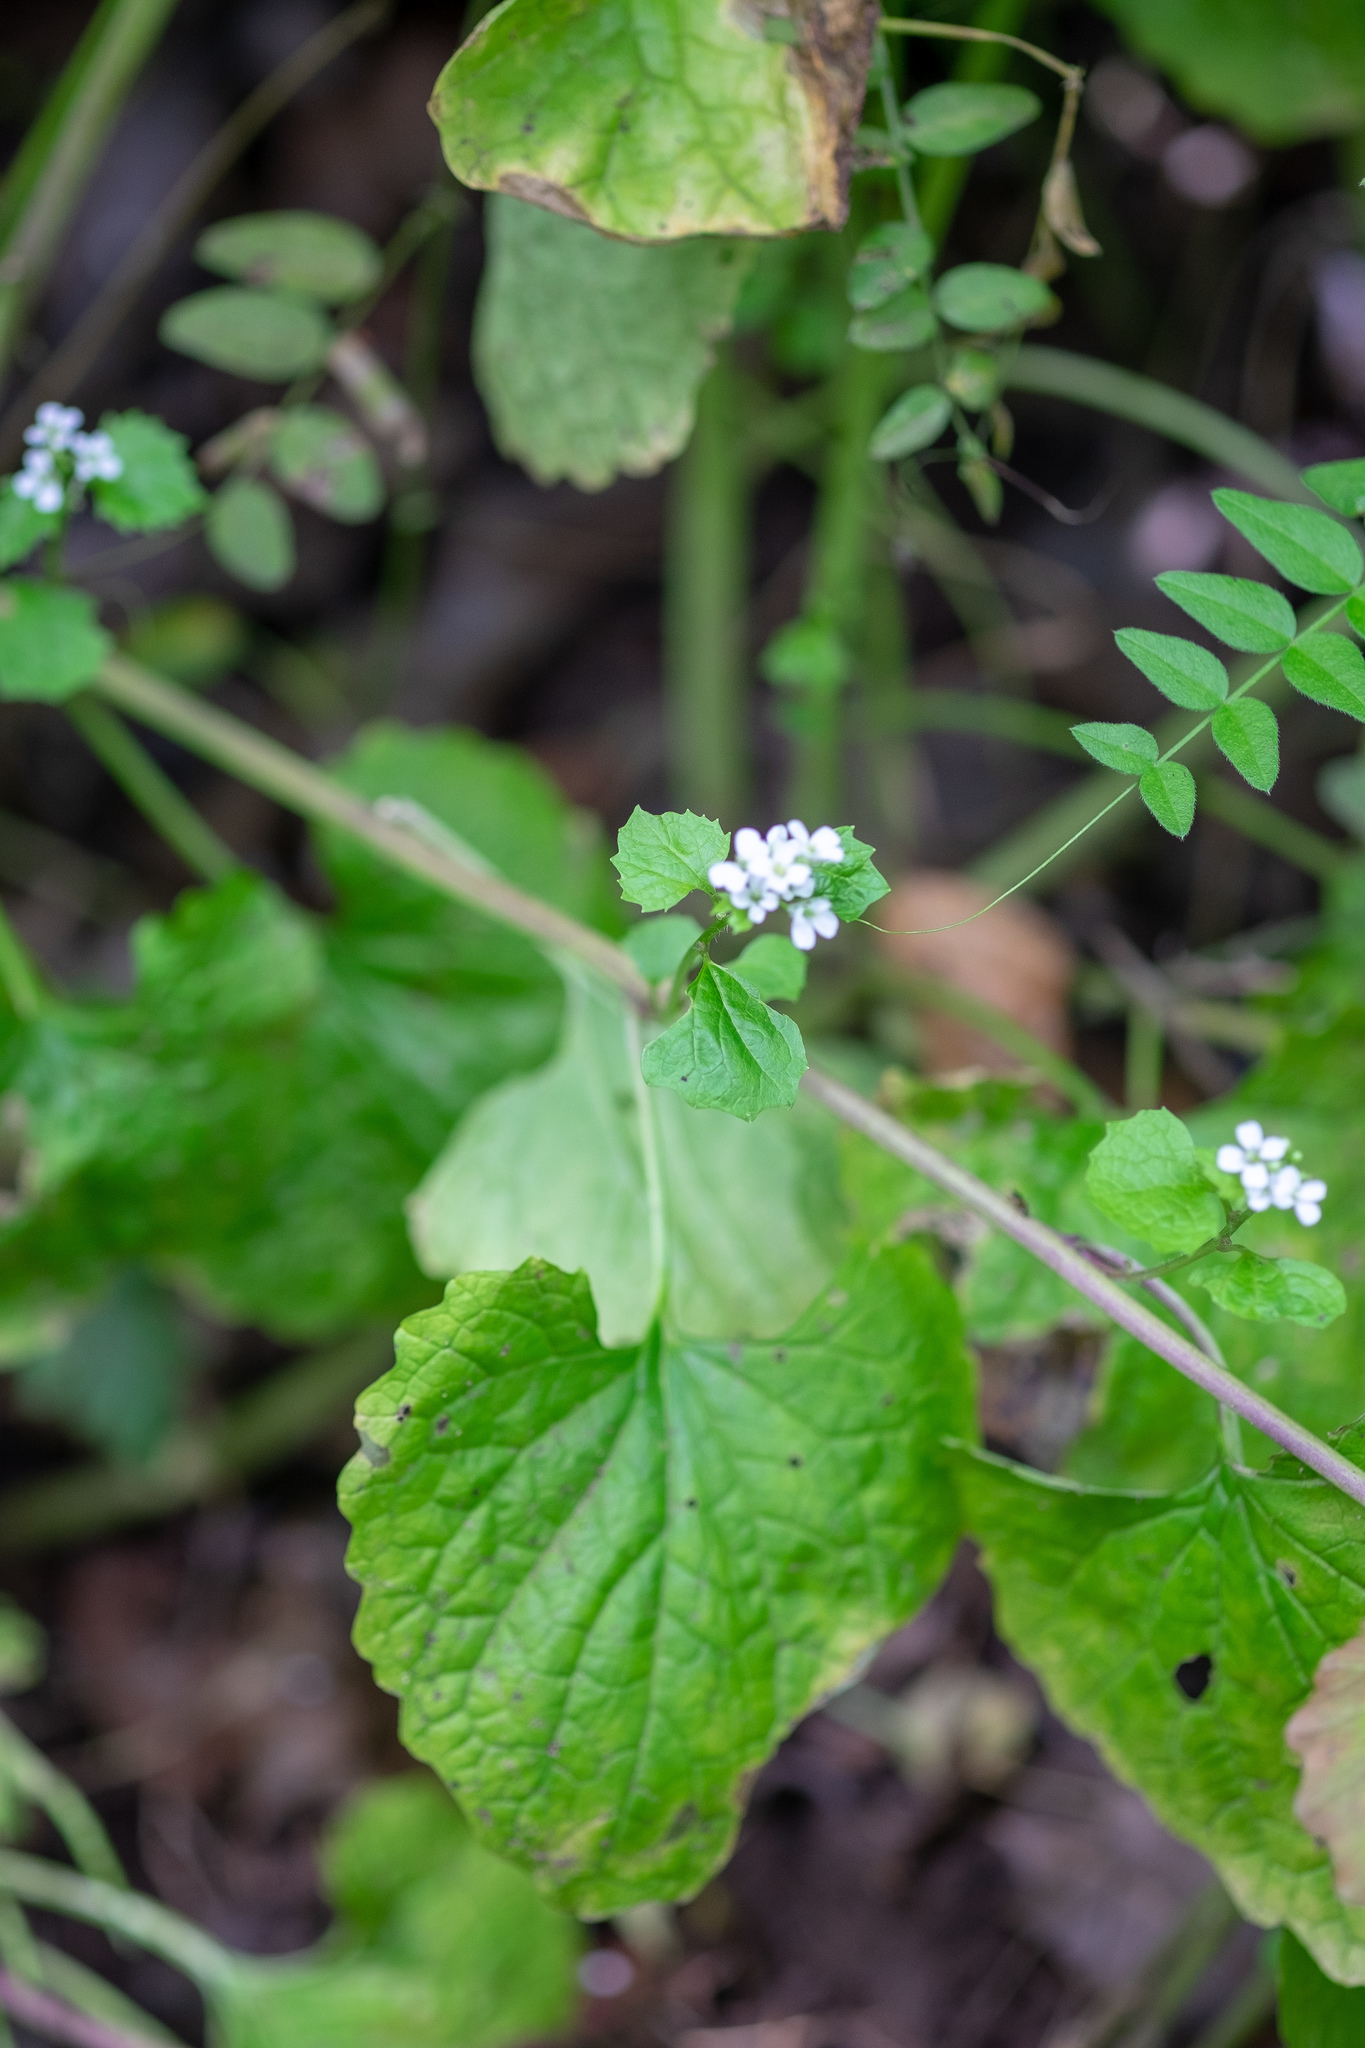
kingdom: Plantae
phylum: Tracheophyta
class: Magnoliopsida
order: Brassicales
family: Brassicaceae
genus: Alliaria
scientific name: Alliaria petiolata
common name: Garlic mustard
